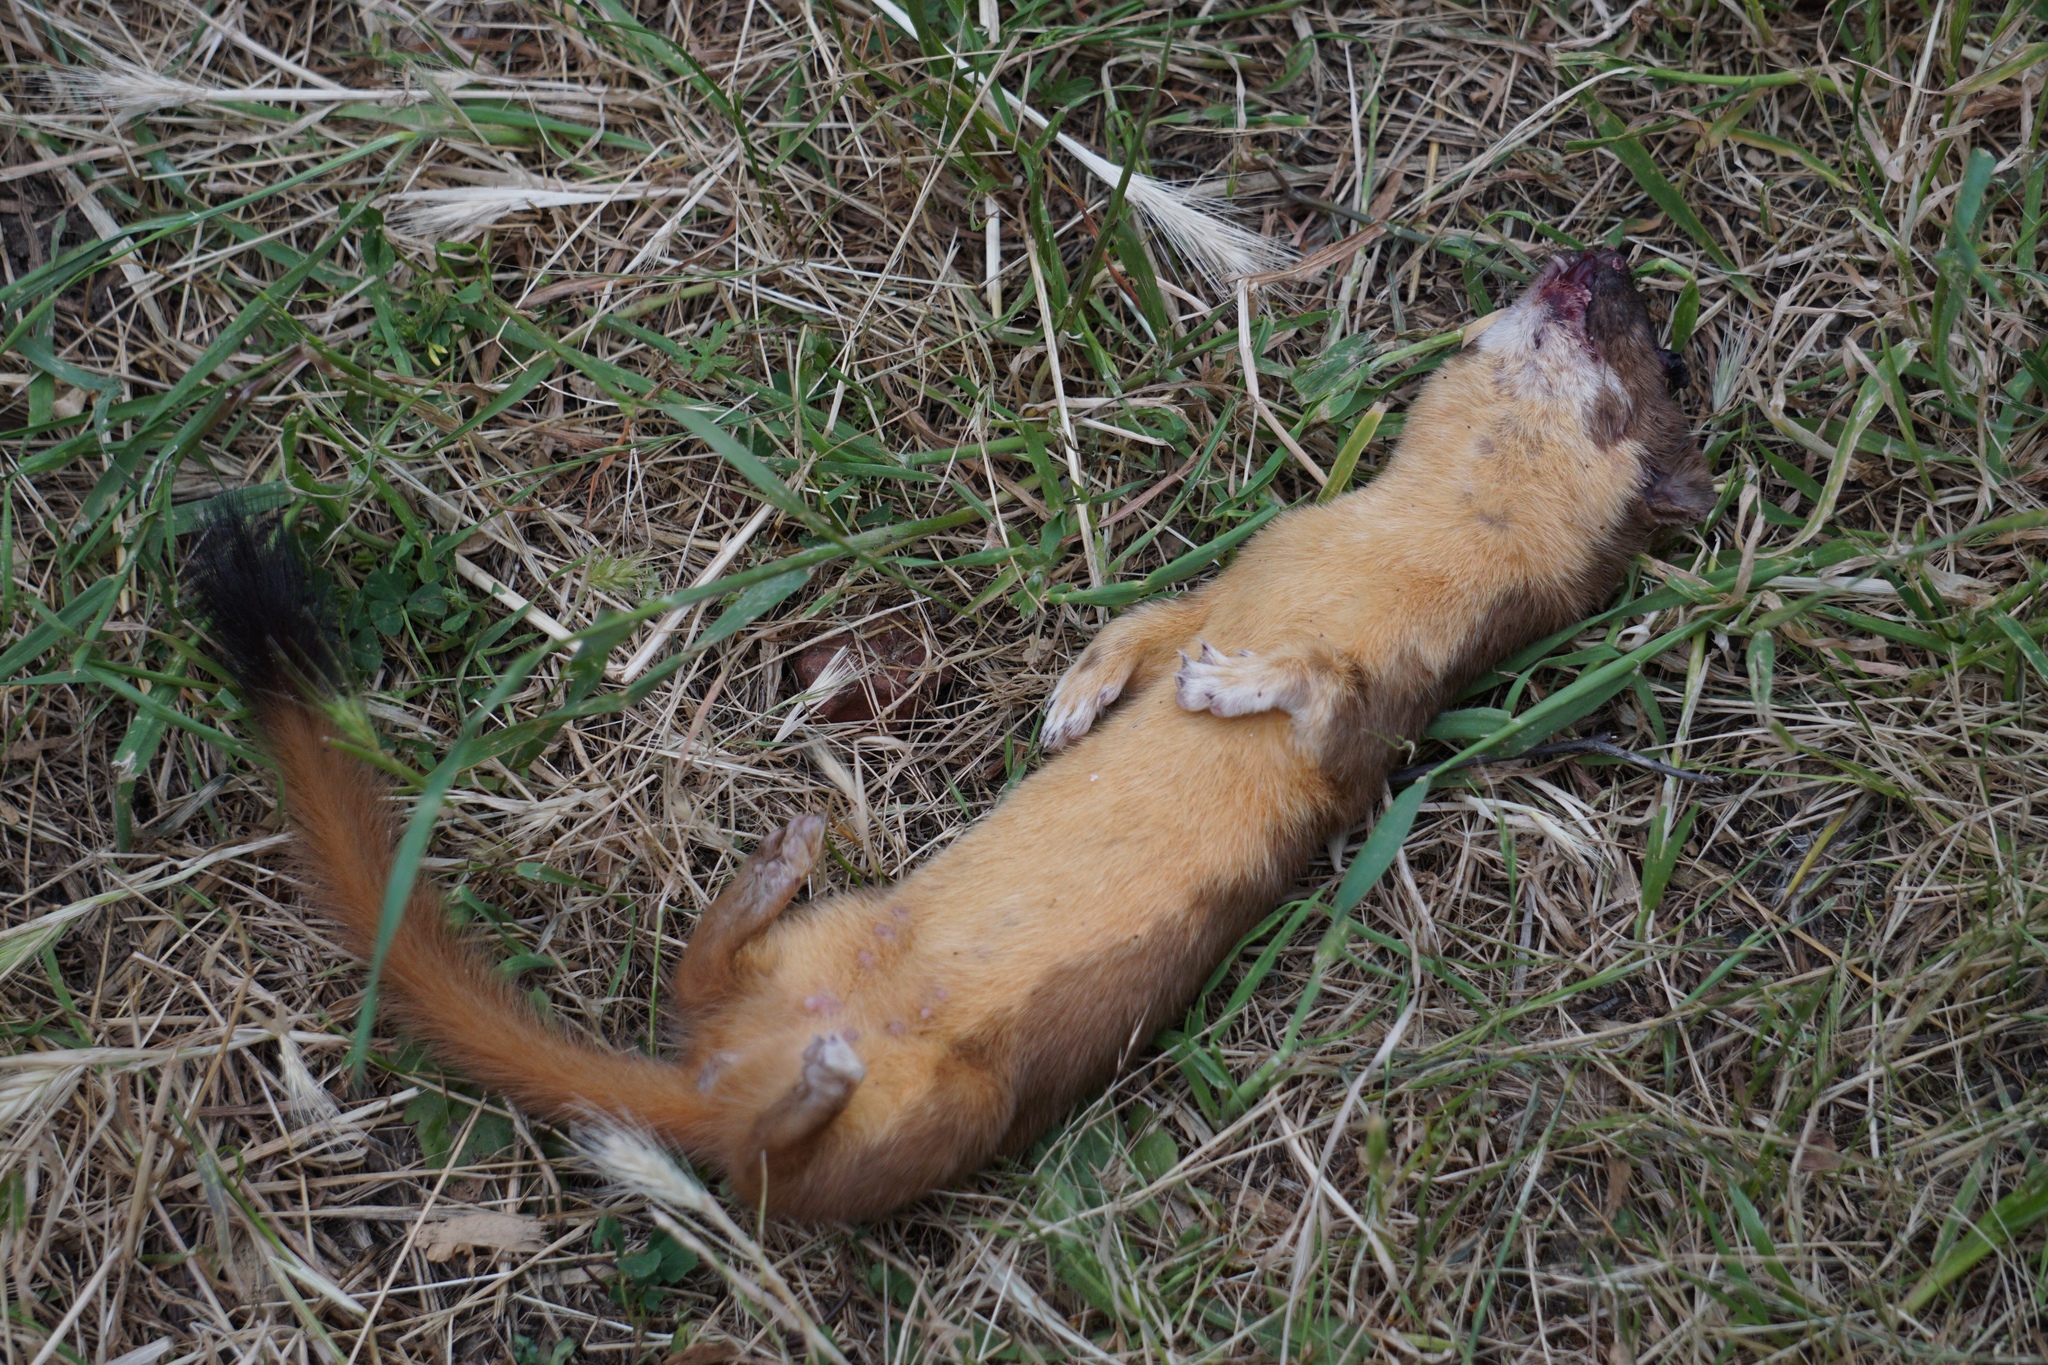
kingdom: Animalia
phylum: Chordata
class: Mammalia
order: Carnivora
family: Mustelidae
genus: Mustela
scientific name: Mustela
